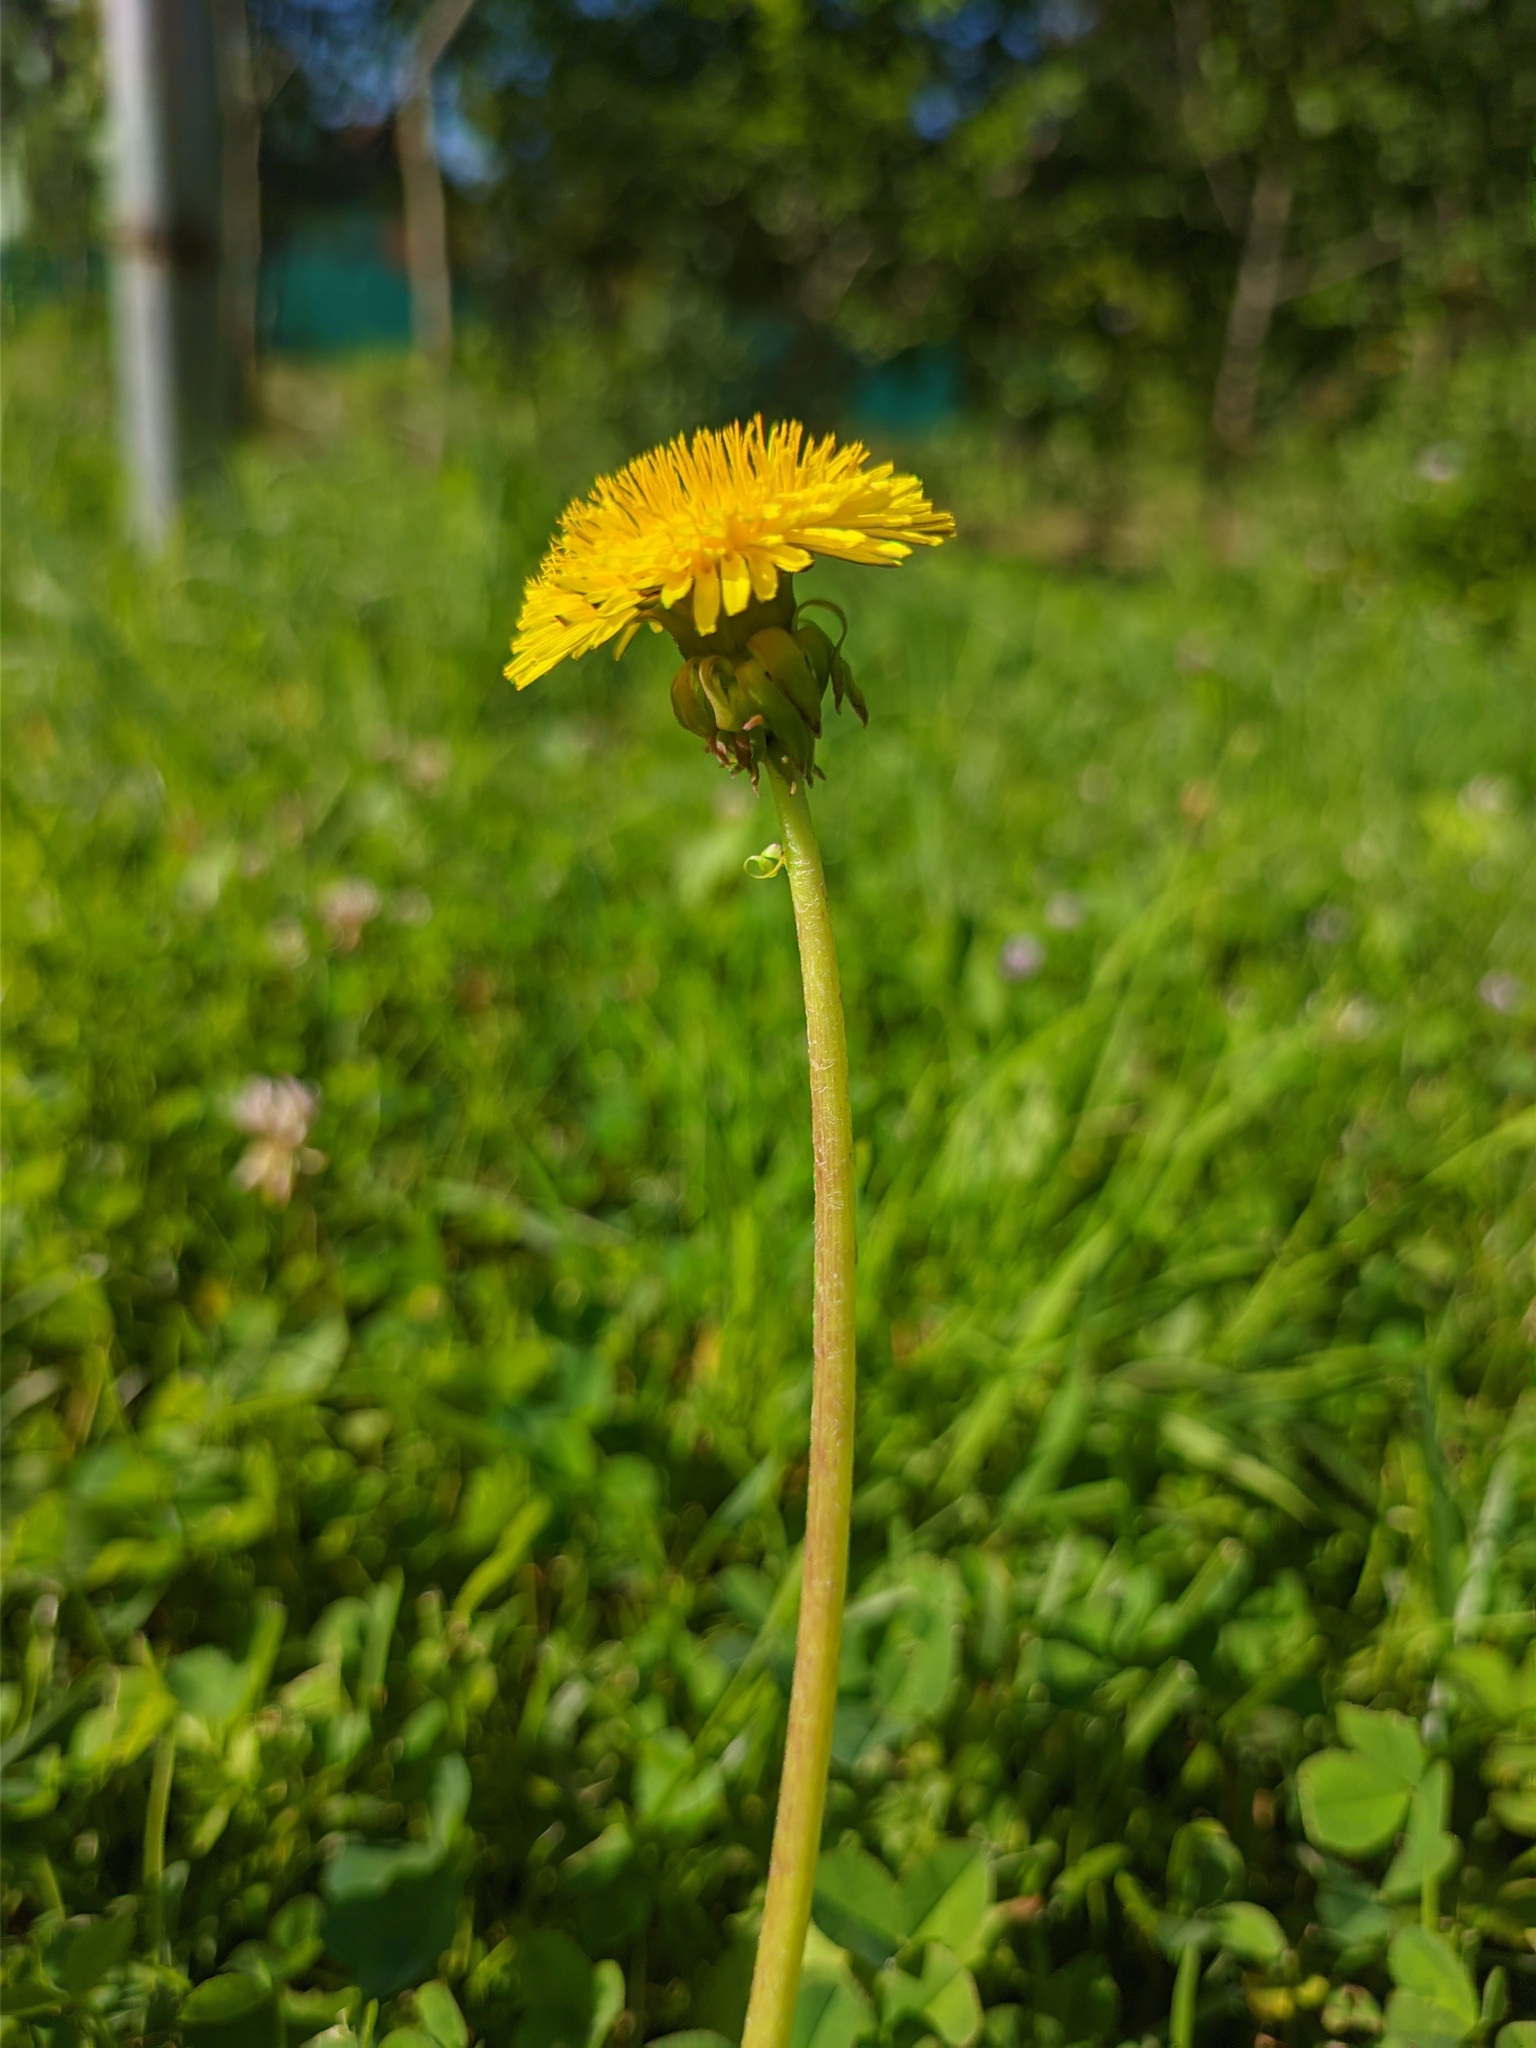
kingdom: Plantae
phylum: Tracheophyta
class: Magnoliopsida
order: Asterales
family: Asteraceae
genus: Taraxacum
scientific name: Taraxacum officinale
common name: Common dandelion
